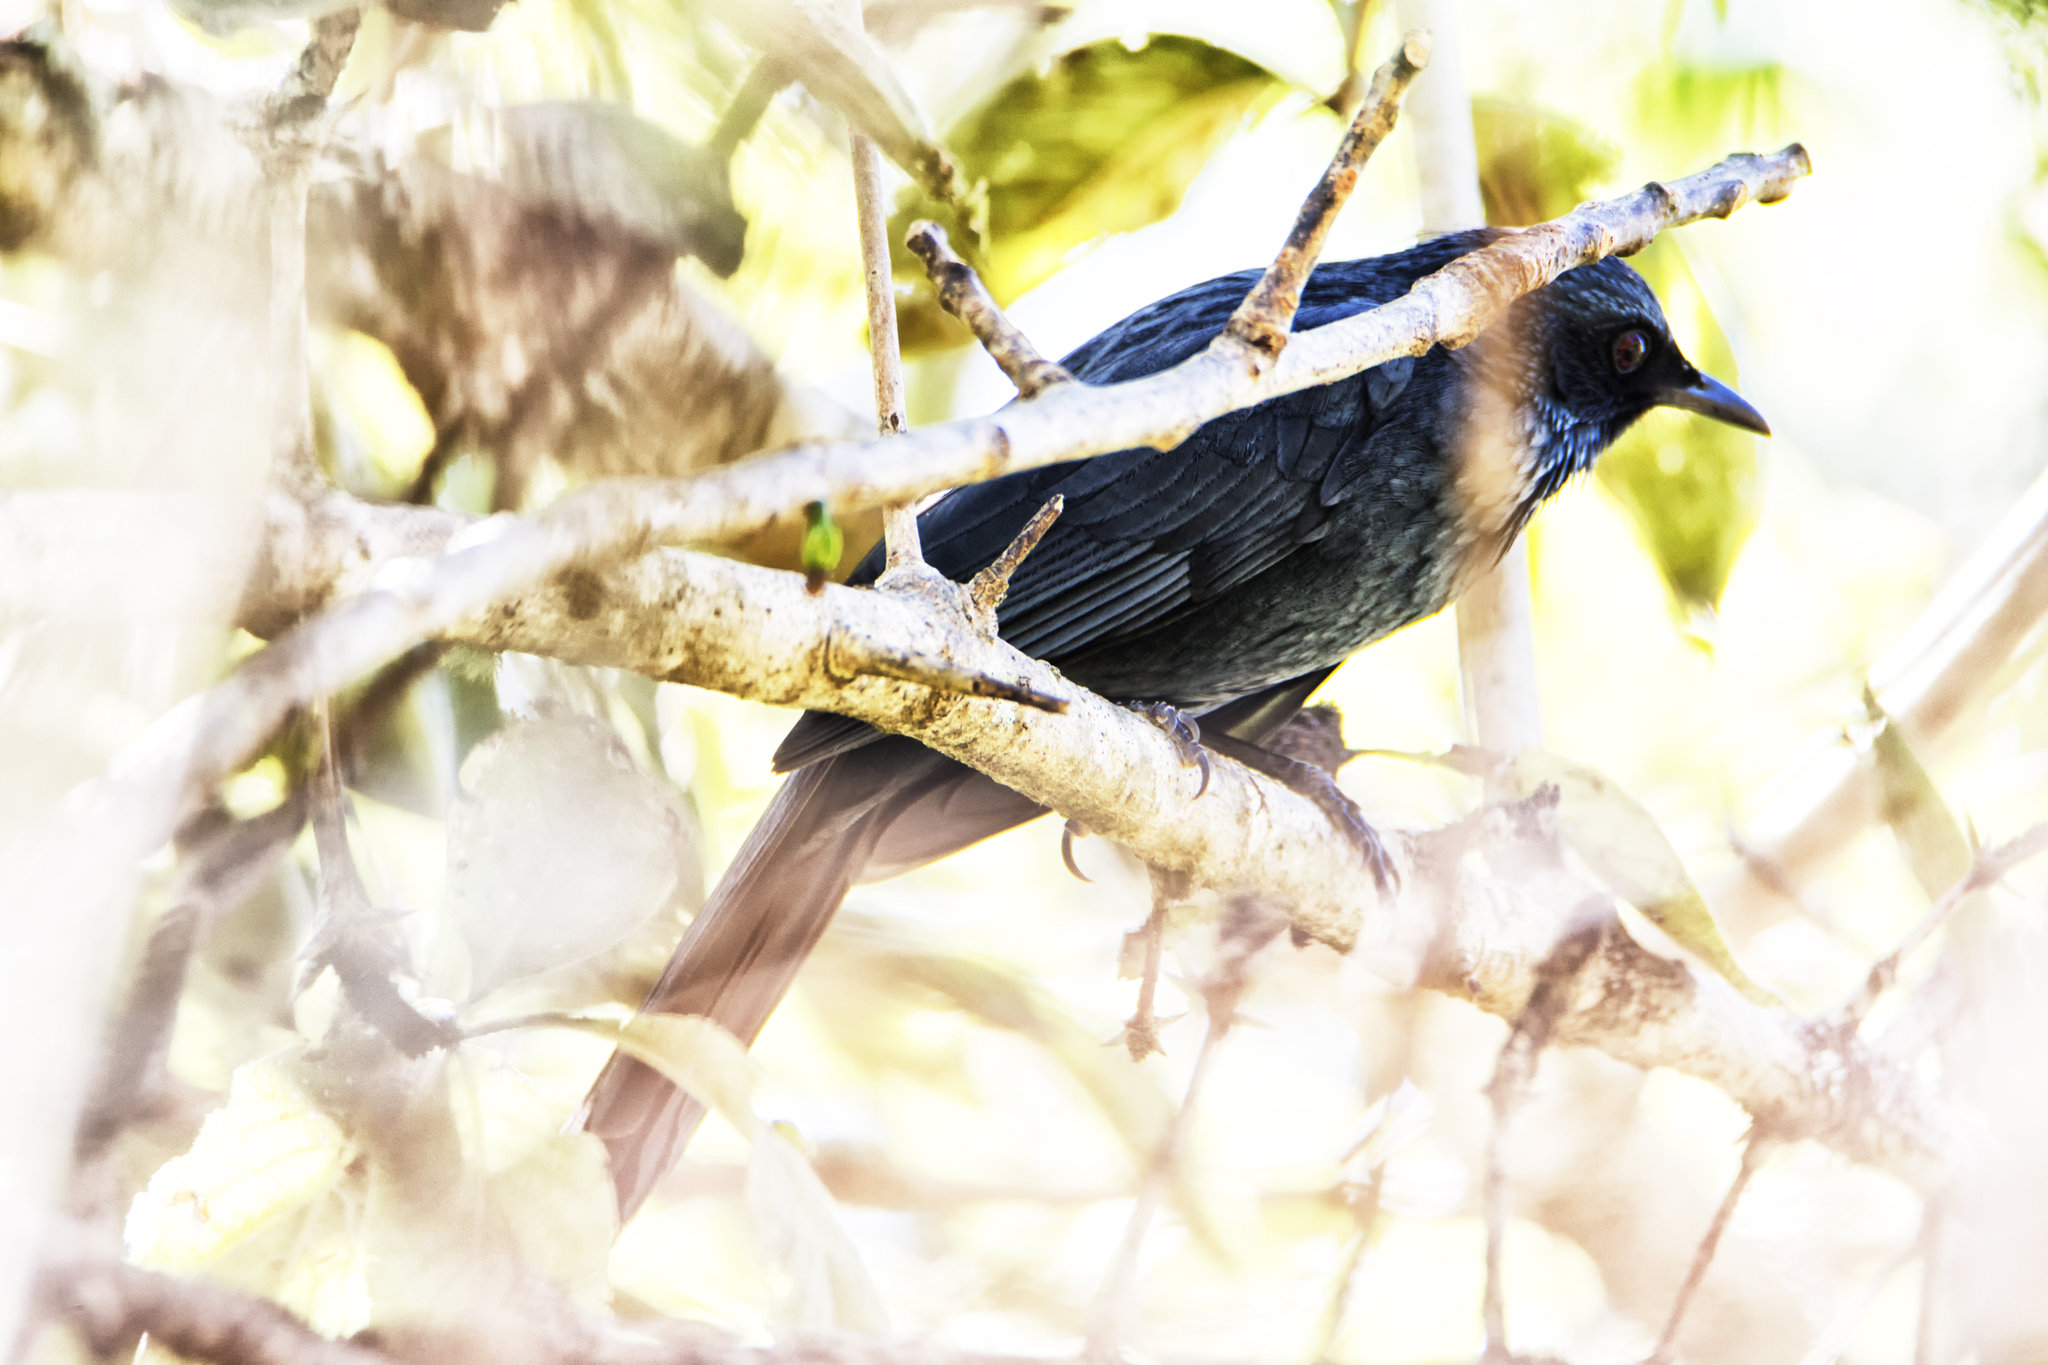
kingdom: Animalia
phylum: Chordata
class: Aves
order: Passeriformes
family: Mimidae
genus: Melanotis
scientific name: Melanotis caerulescens
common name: Blue mockingbird
